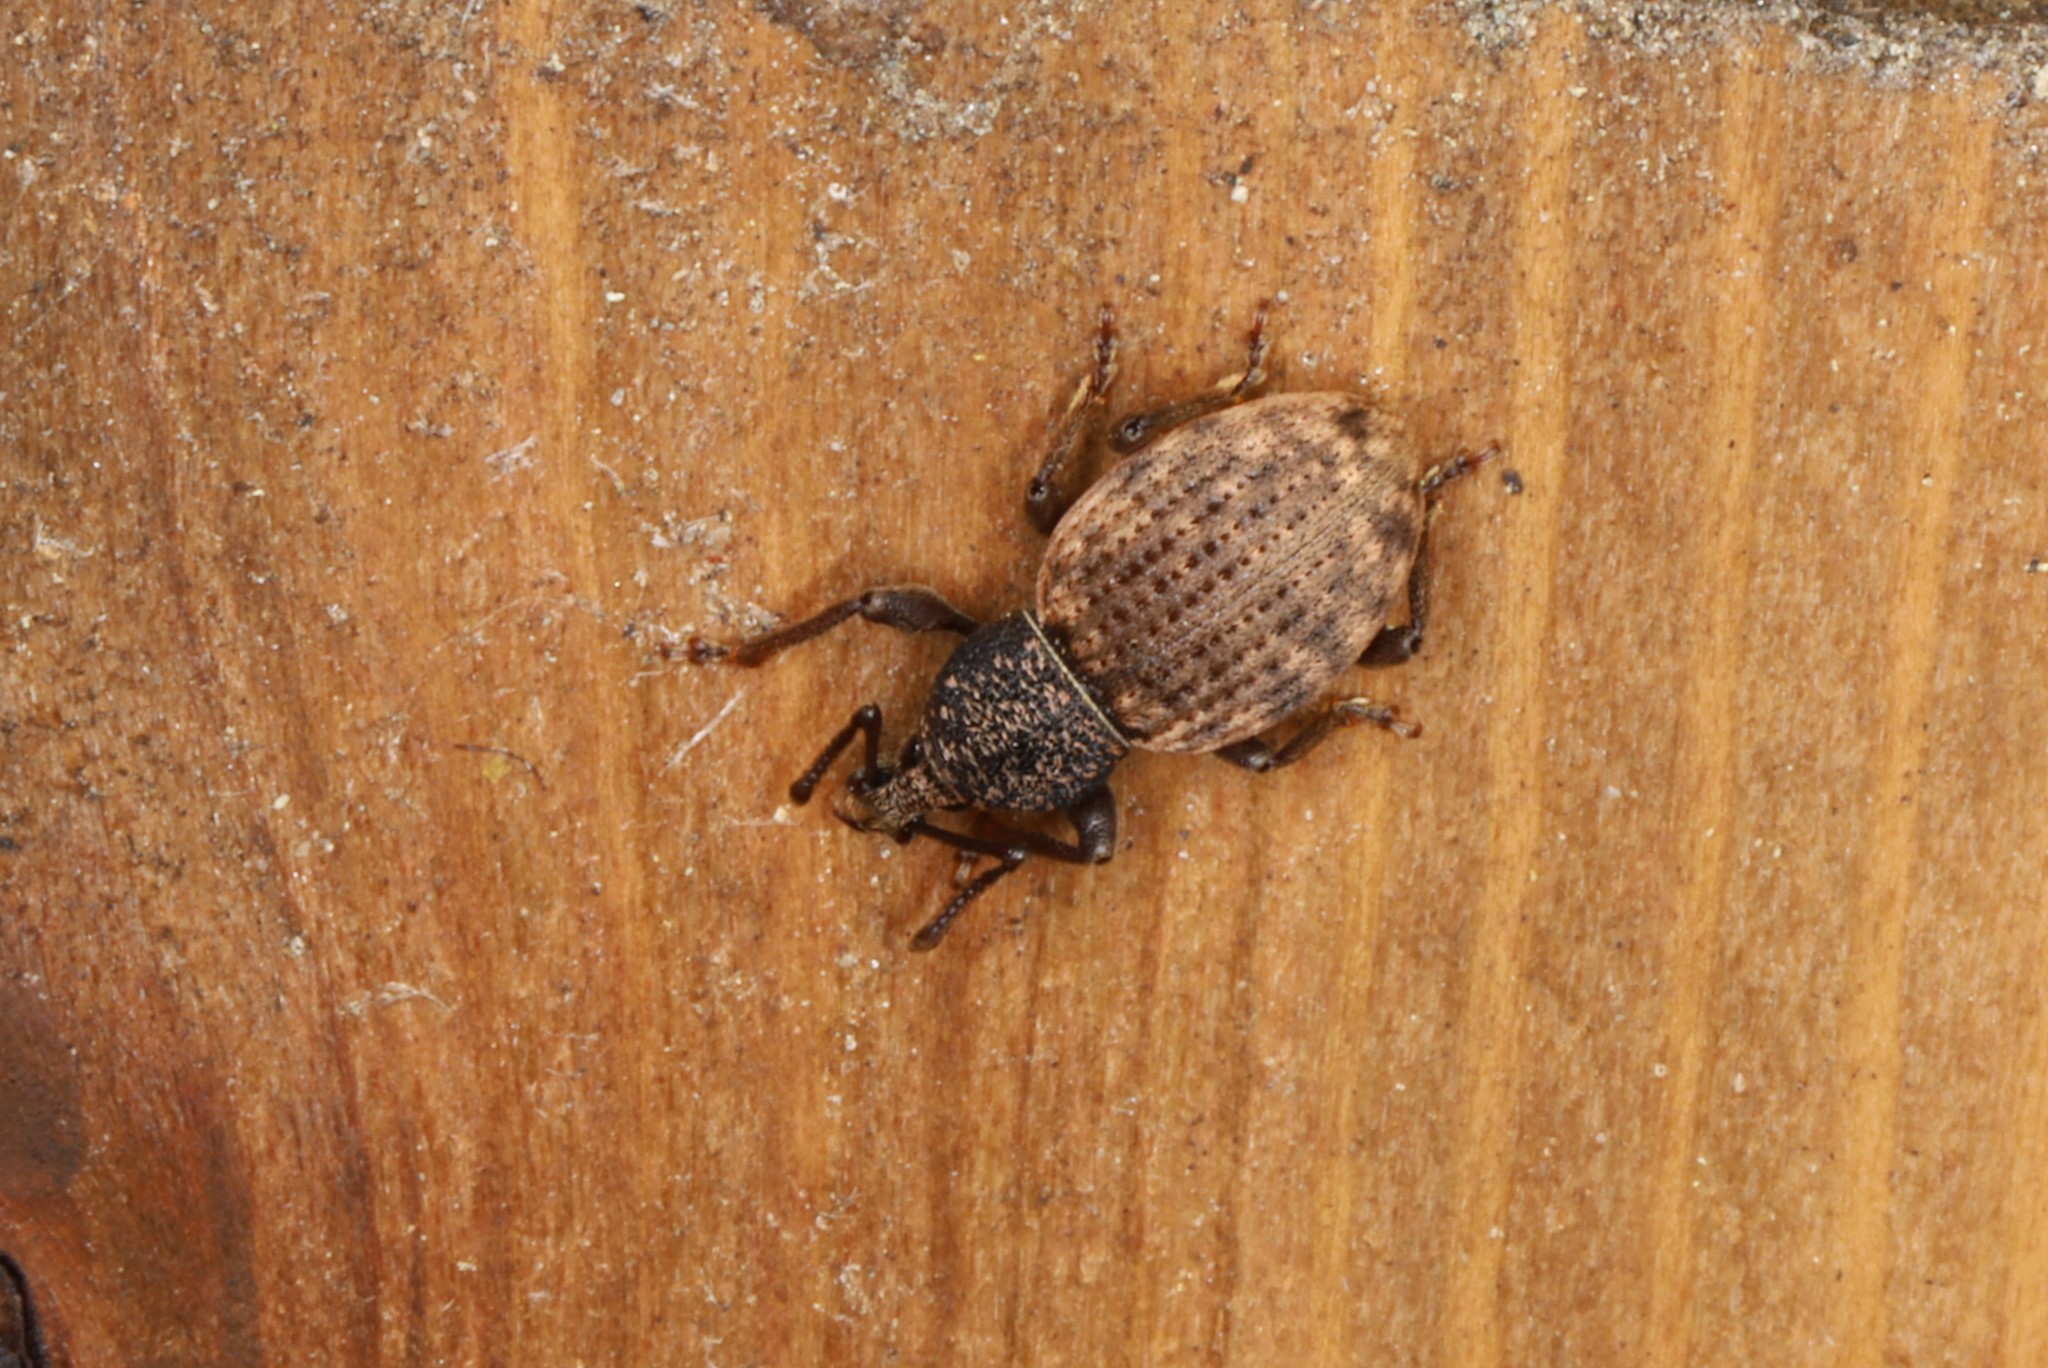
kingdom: Animalia
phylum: Arthropoda
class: Insecta
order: Coleoptera
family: Curculionidae
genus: Otiorhynchus
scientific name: Otiorhynchus raucus
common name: Weevil
